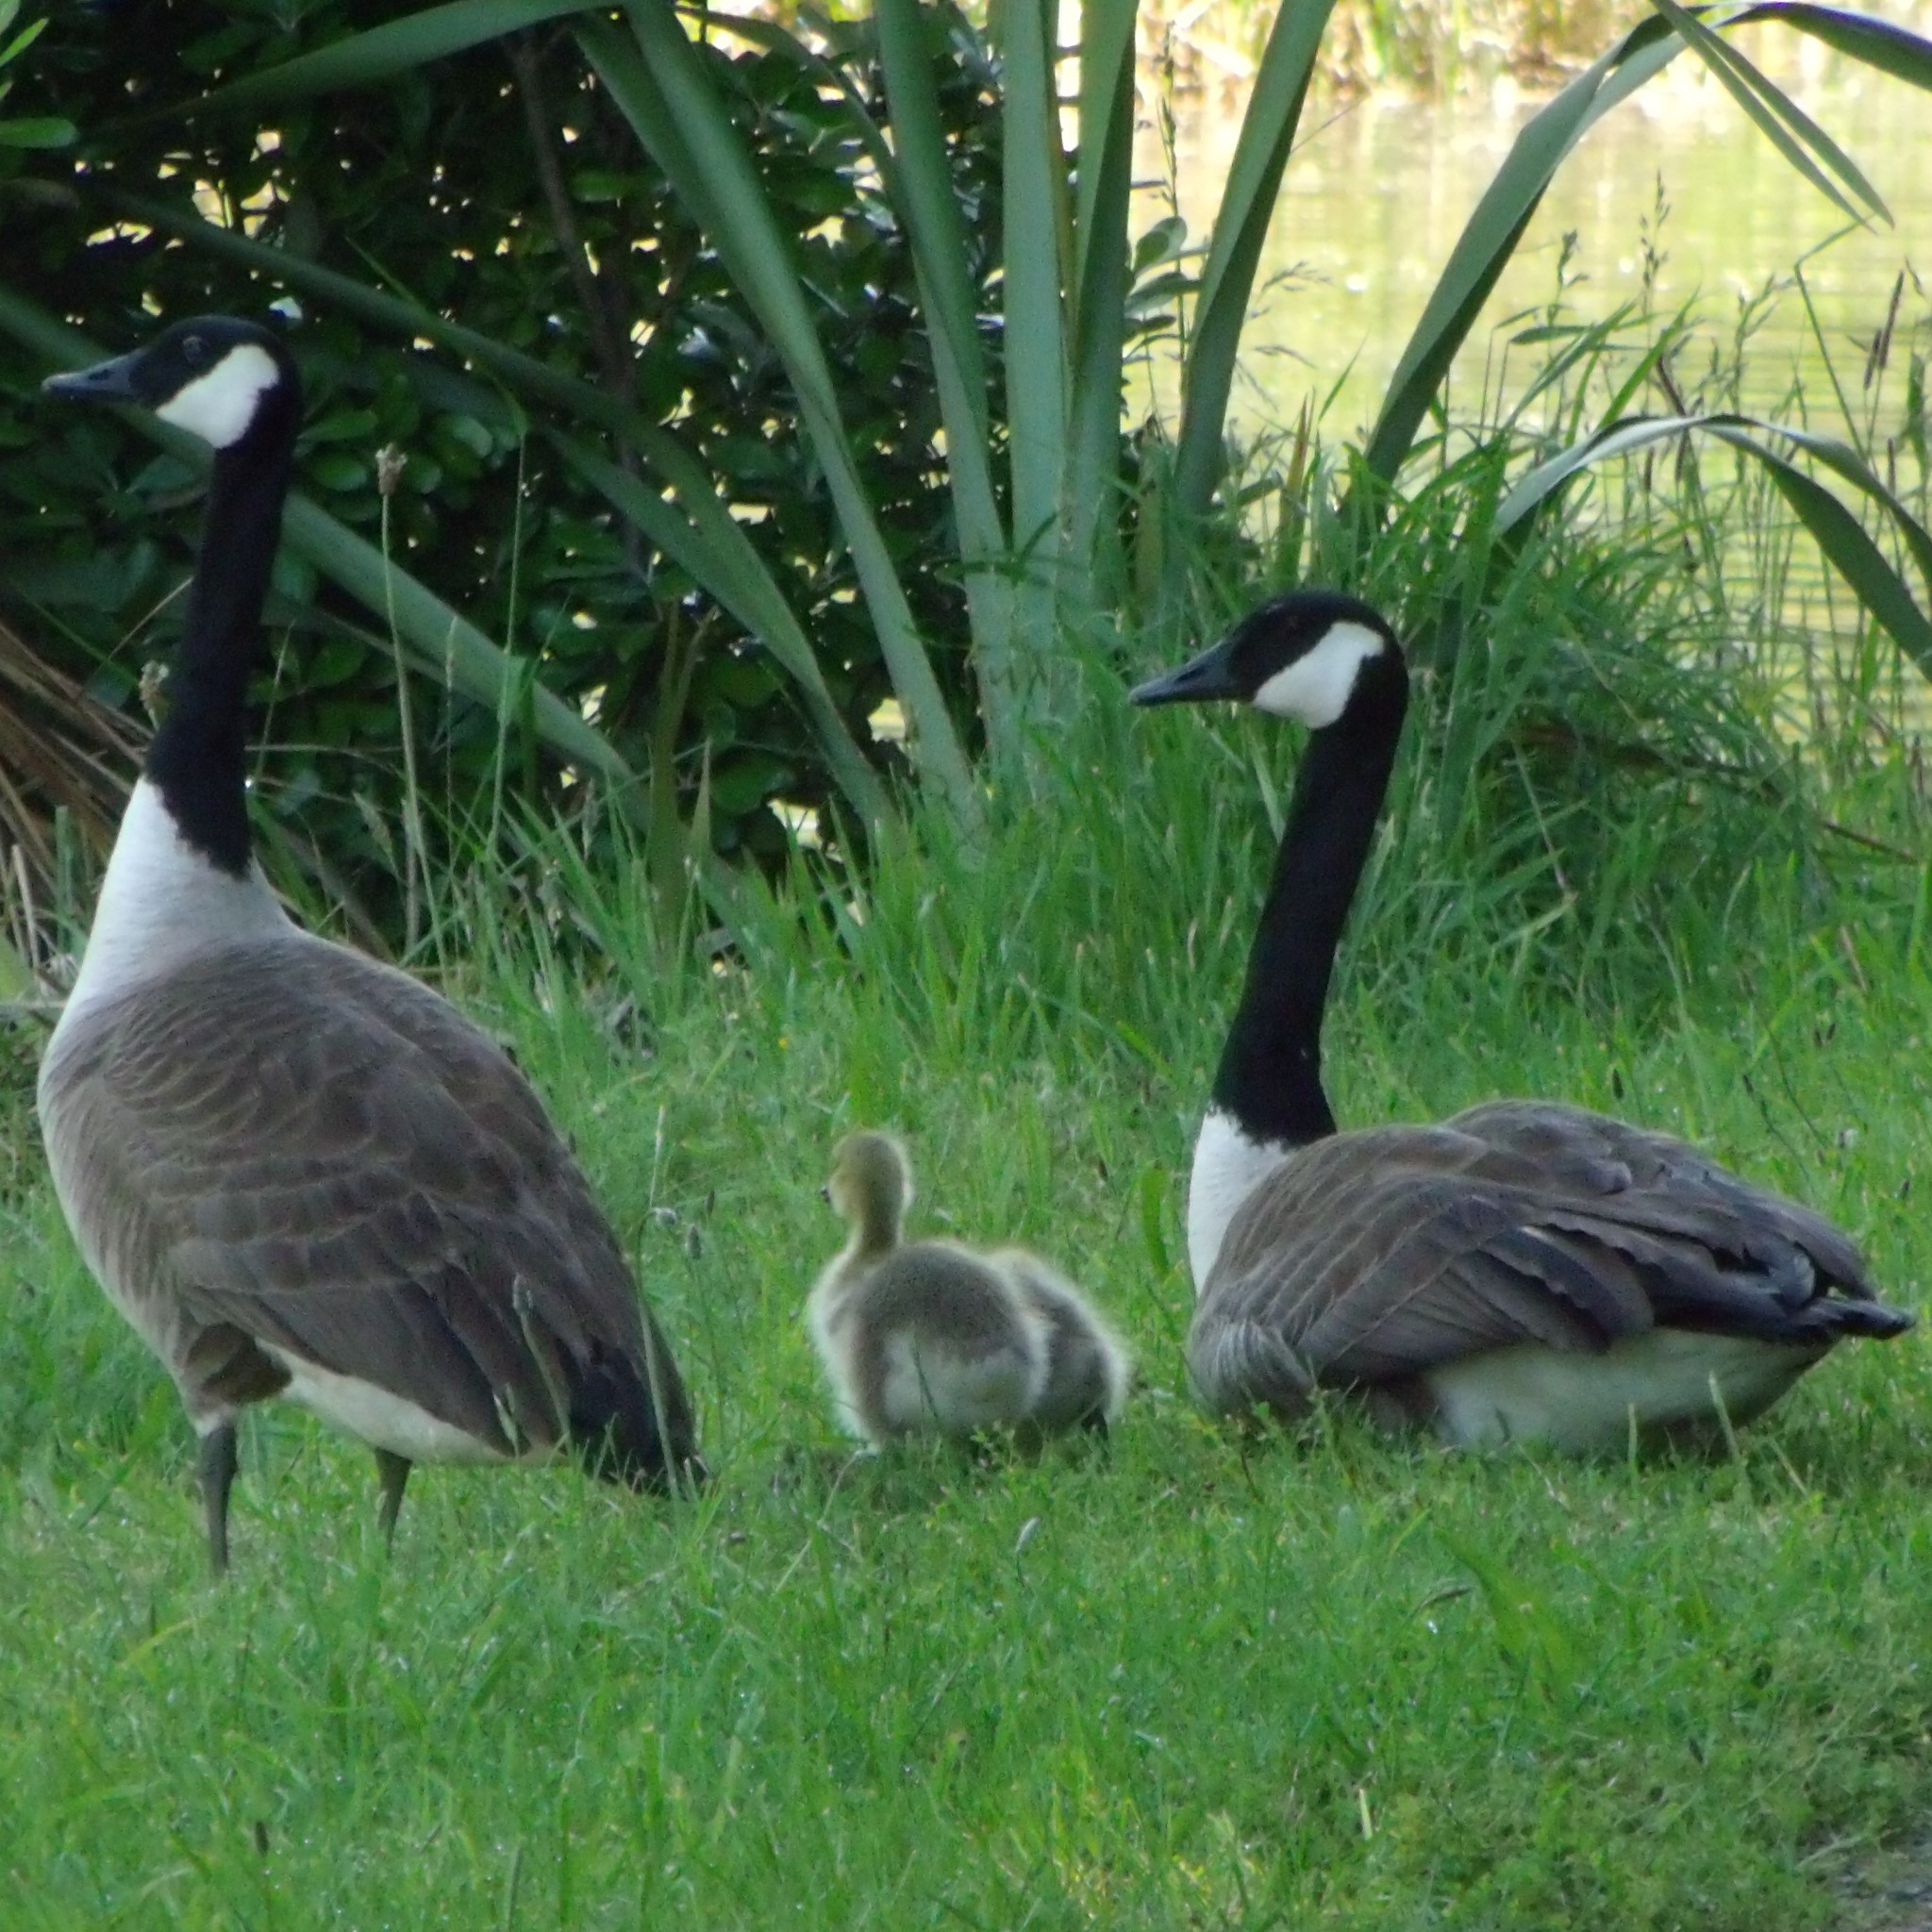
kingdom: Animalia
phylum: Chordata
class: Aves
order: Anseriformes
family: Anatidae
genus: Branta
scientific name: Branta canadensis
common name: Canada goose
